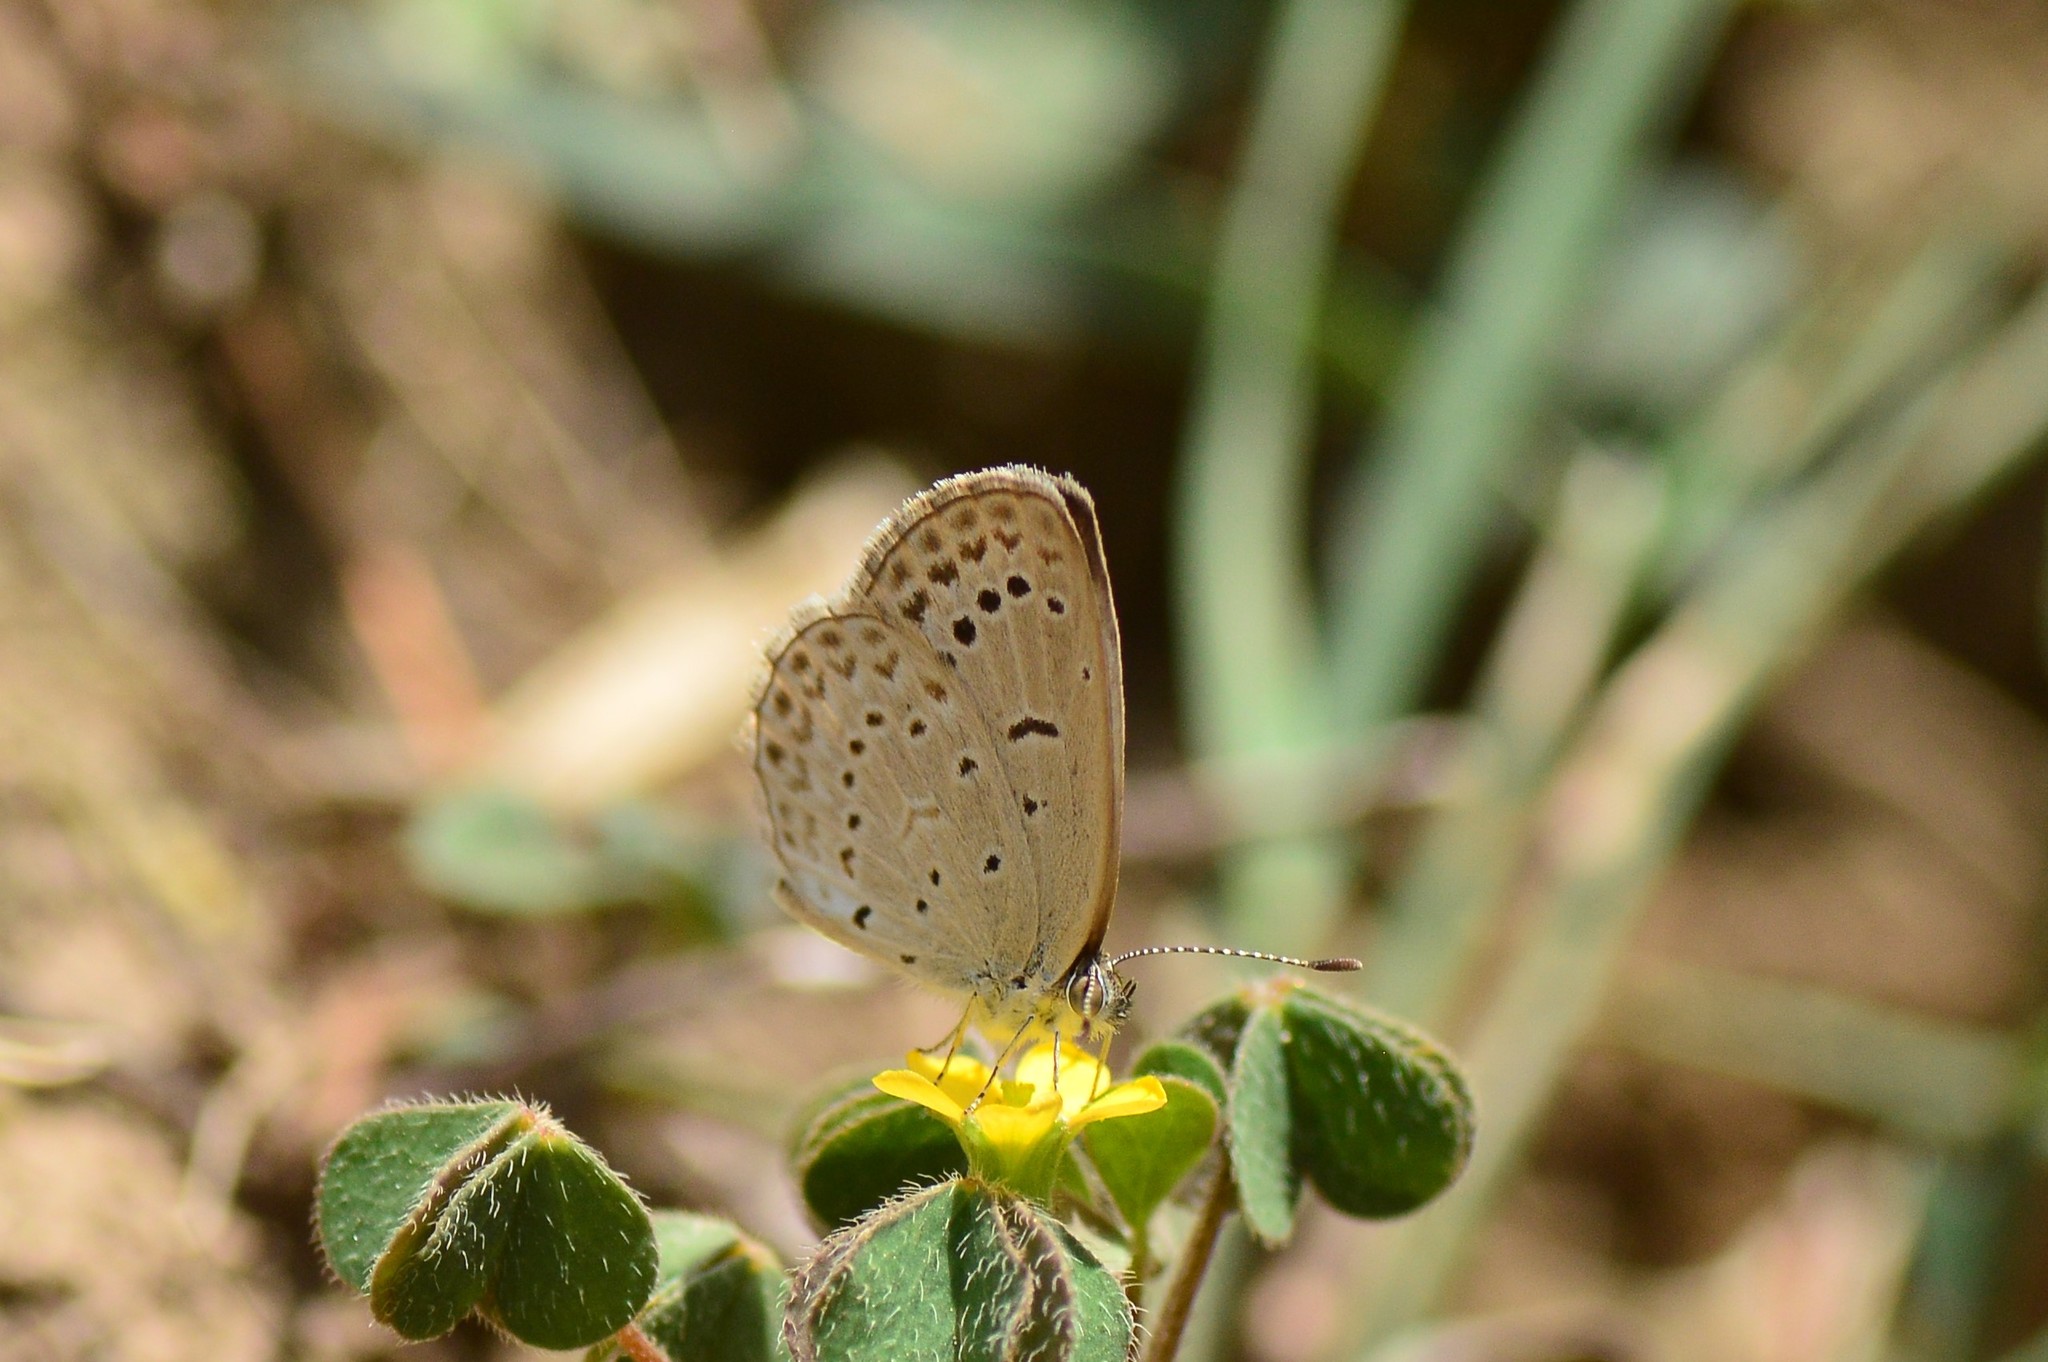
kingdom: Animalia
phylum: Arthropoda
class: Insecta
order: Lepidoptera
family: Lycaenidae
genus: Pseudozizeeria
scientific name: Pseudozizeeria maha
